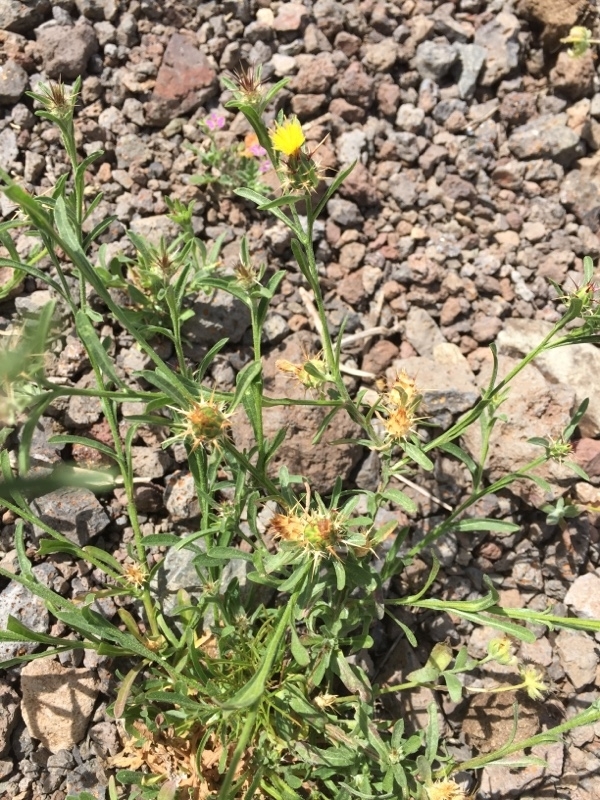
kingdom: Plantae
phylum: Tracheophyta
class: Magnoliopsida
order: Asterales
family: Asteraceae
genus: Centaurea
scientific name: Centaurea melitensis
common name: Maltese star-thistle
